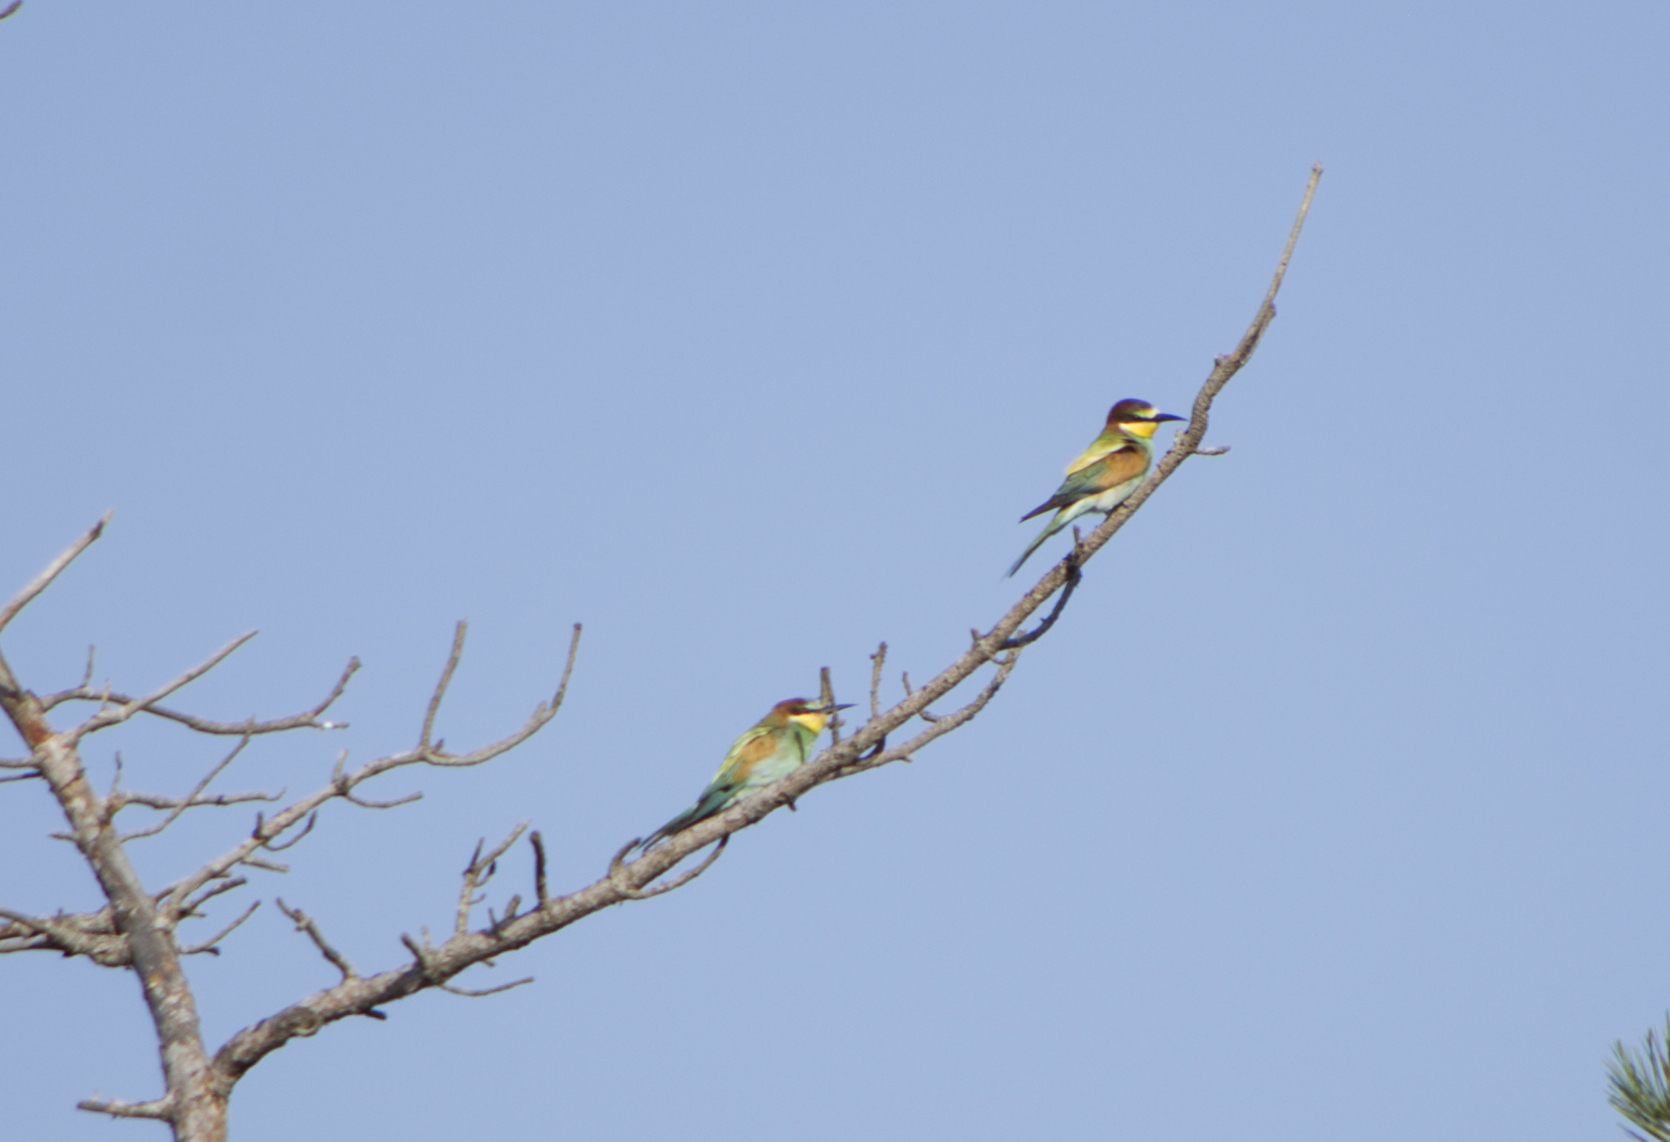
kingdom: Animalia
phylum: Chordata
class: Aves
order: Coraciiformes
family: Meropidae
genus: Merops
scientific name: Merops apiaster
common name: European bee-eater
